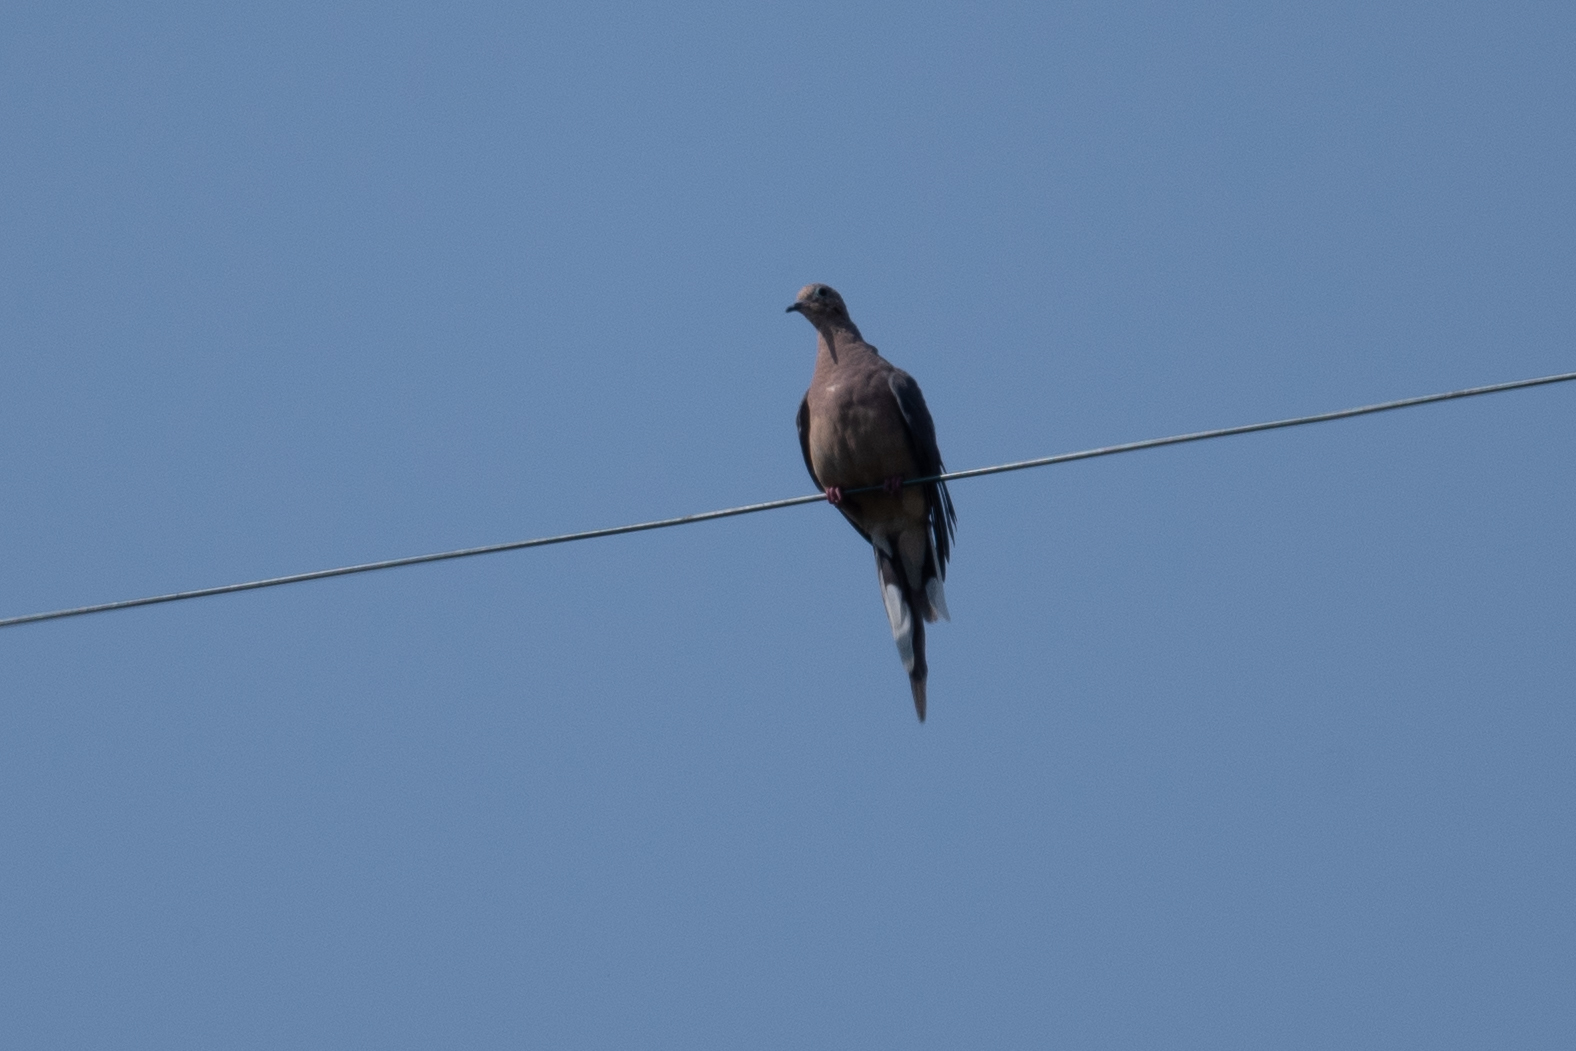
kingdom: Animalia
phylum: Chordata
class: Aves
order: Columbiformes
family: Columbidae
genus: Zenaida
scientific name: Zenaida macroura
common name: Mourning dove
